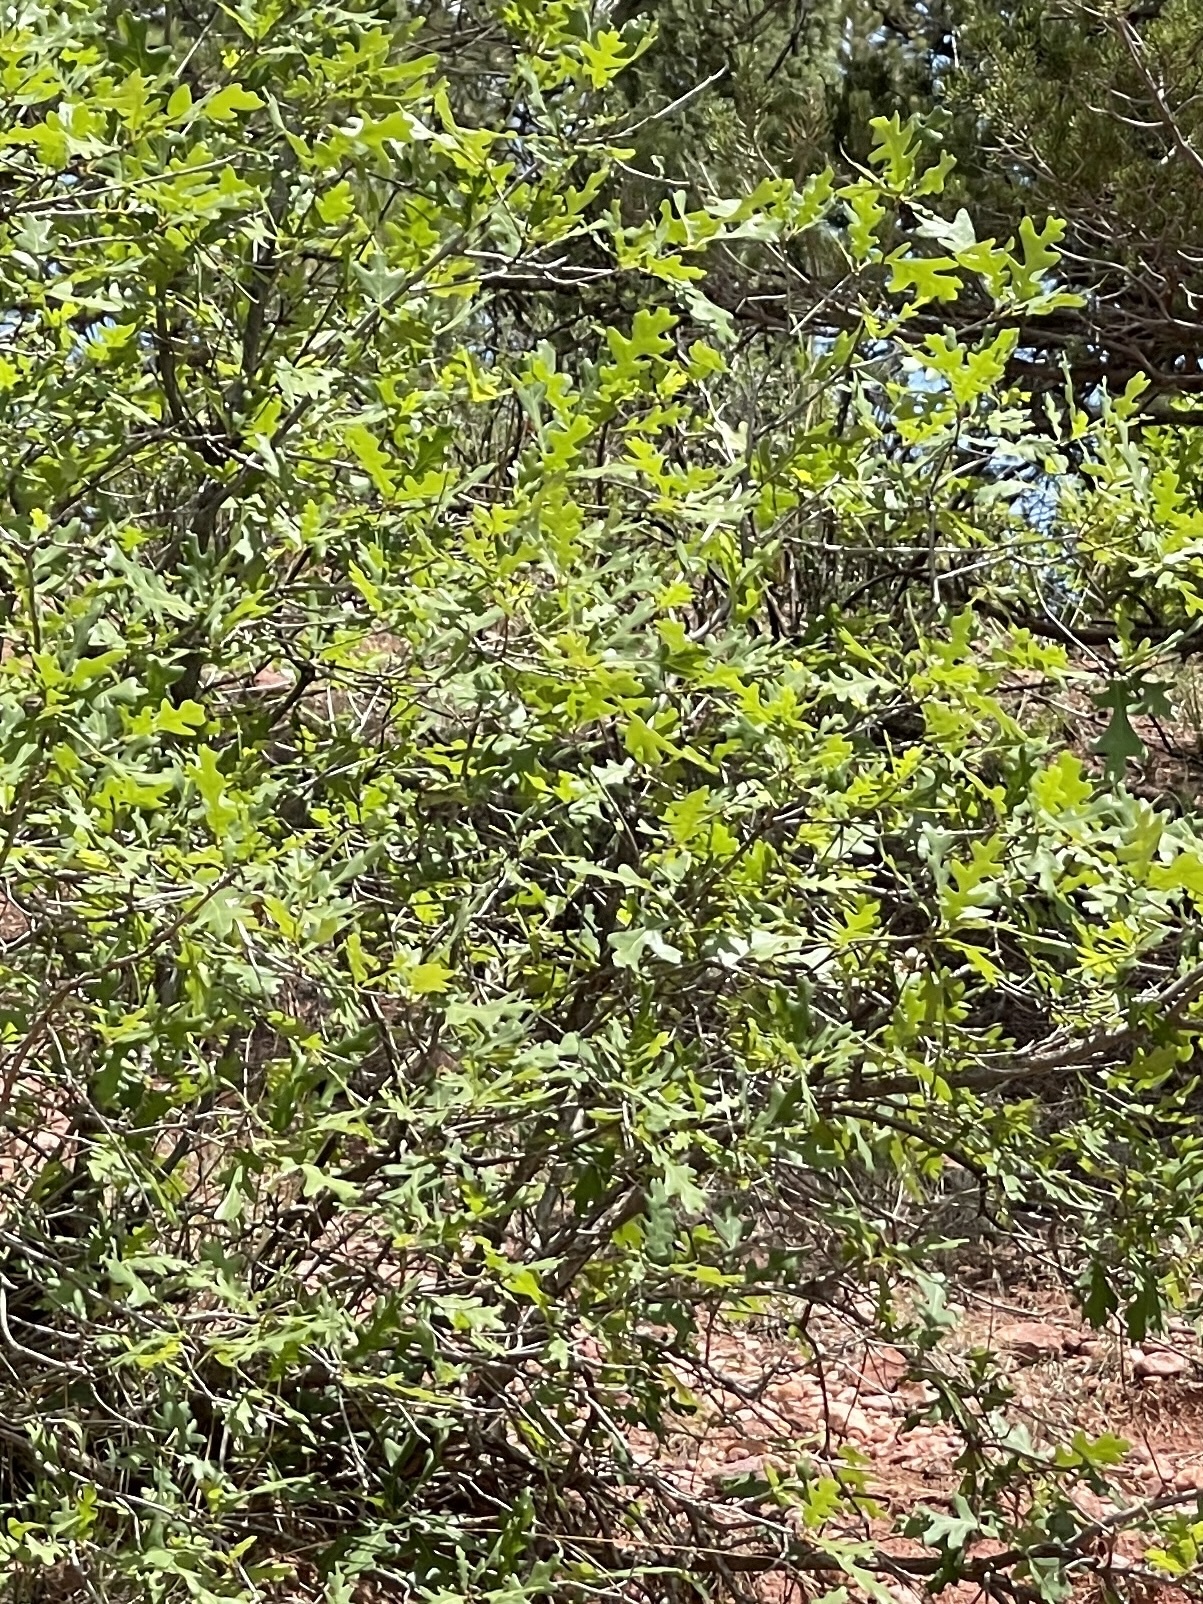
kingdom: Plantae
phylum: Tracheophyta
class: Magnoliopsida
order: Fagales
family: Fagaceae
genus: Quercus
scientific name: Quercus gambelii
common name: Gambel oak
